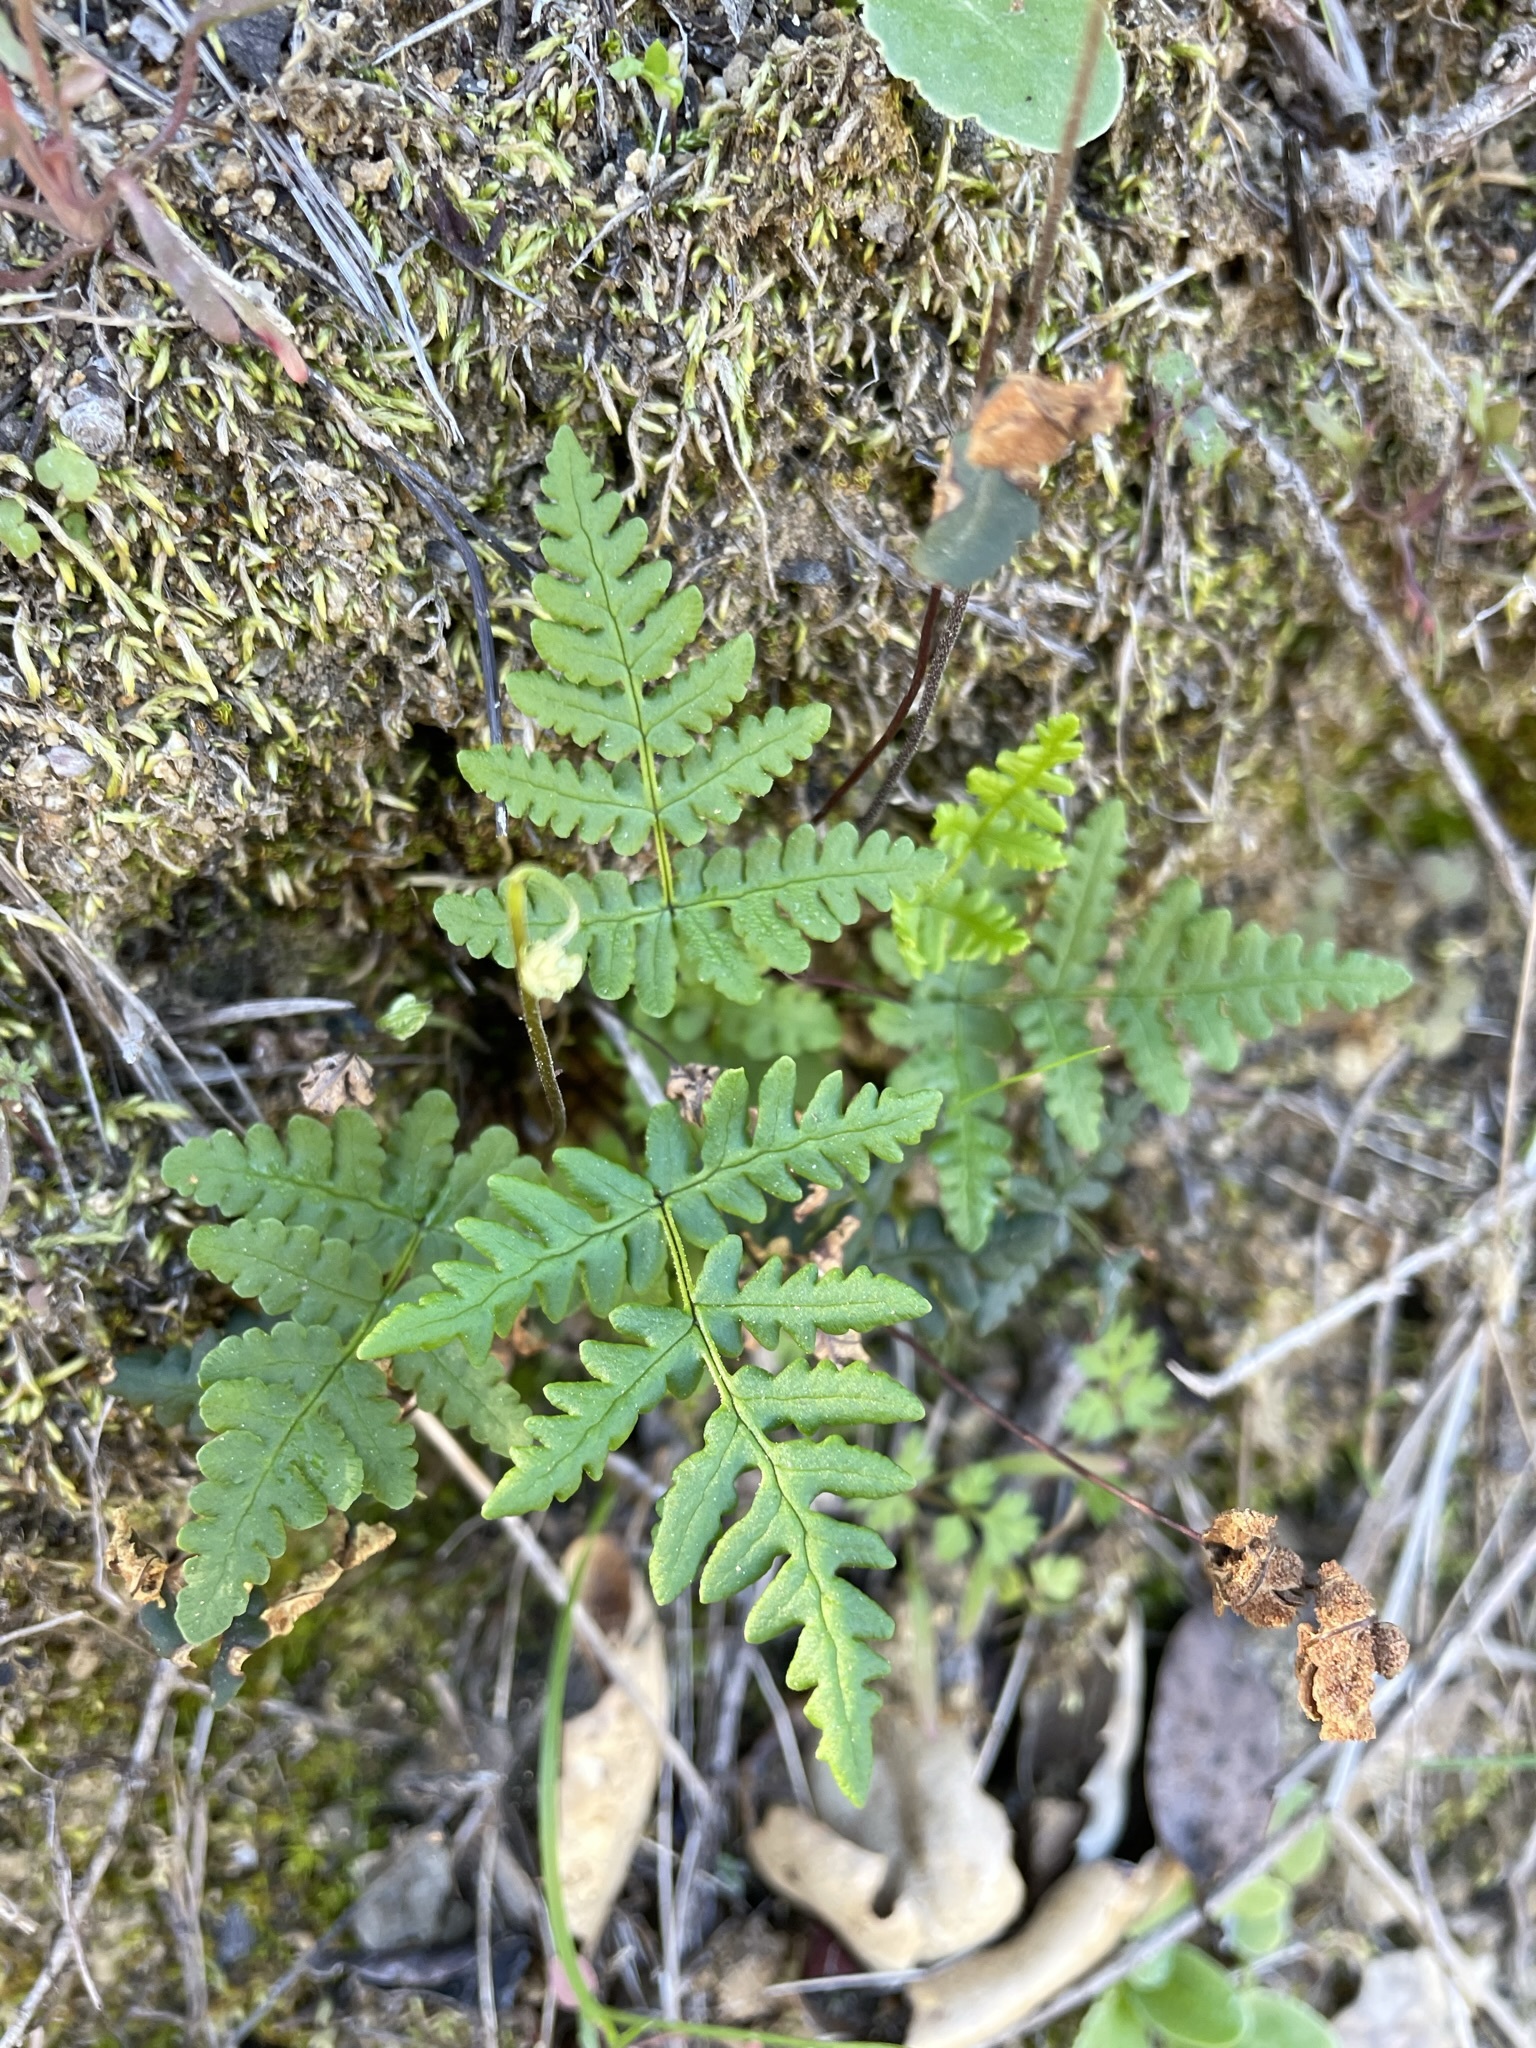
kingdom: Plantae
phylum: Tracheophyta
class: Polypodiopsida
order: Polypodiales
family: Pteridaceae
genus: Pentagramma
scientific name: Pentagramma triangularis
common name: Gold fern
